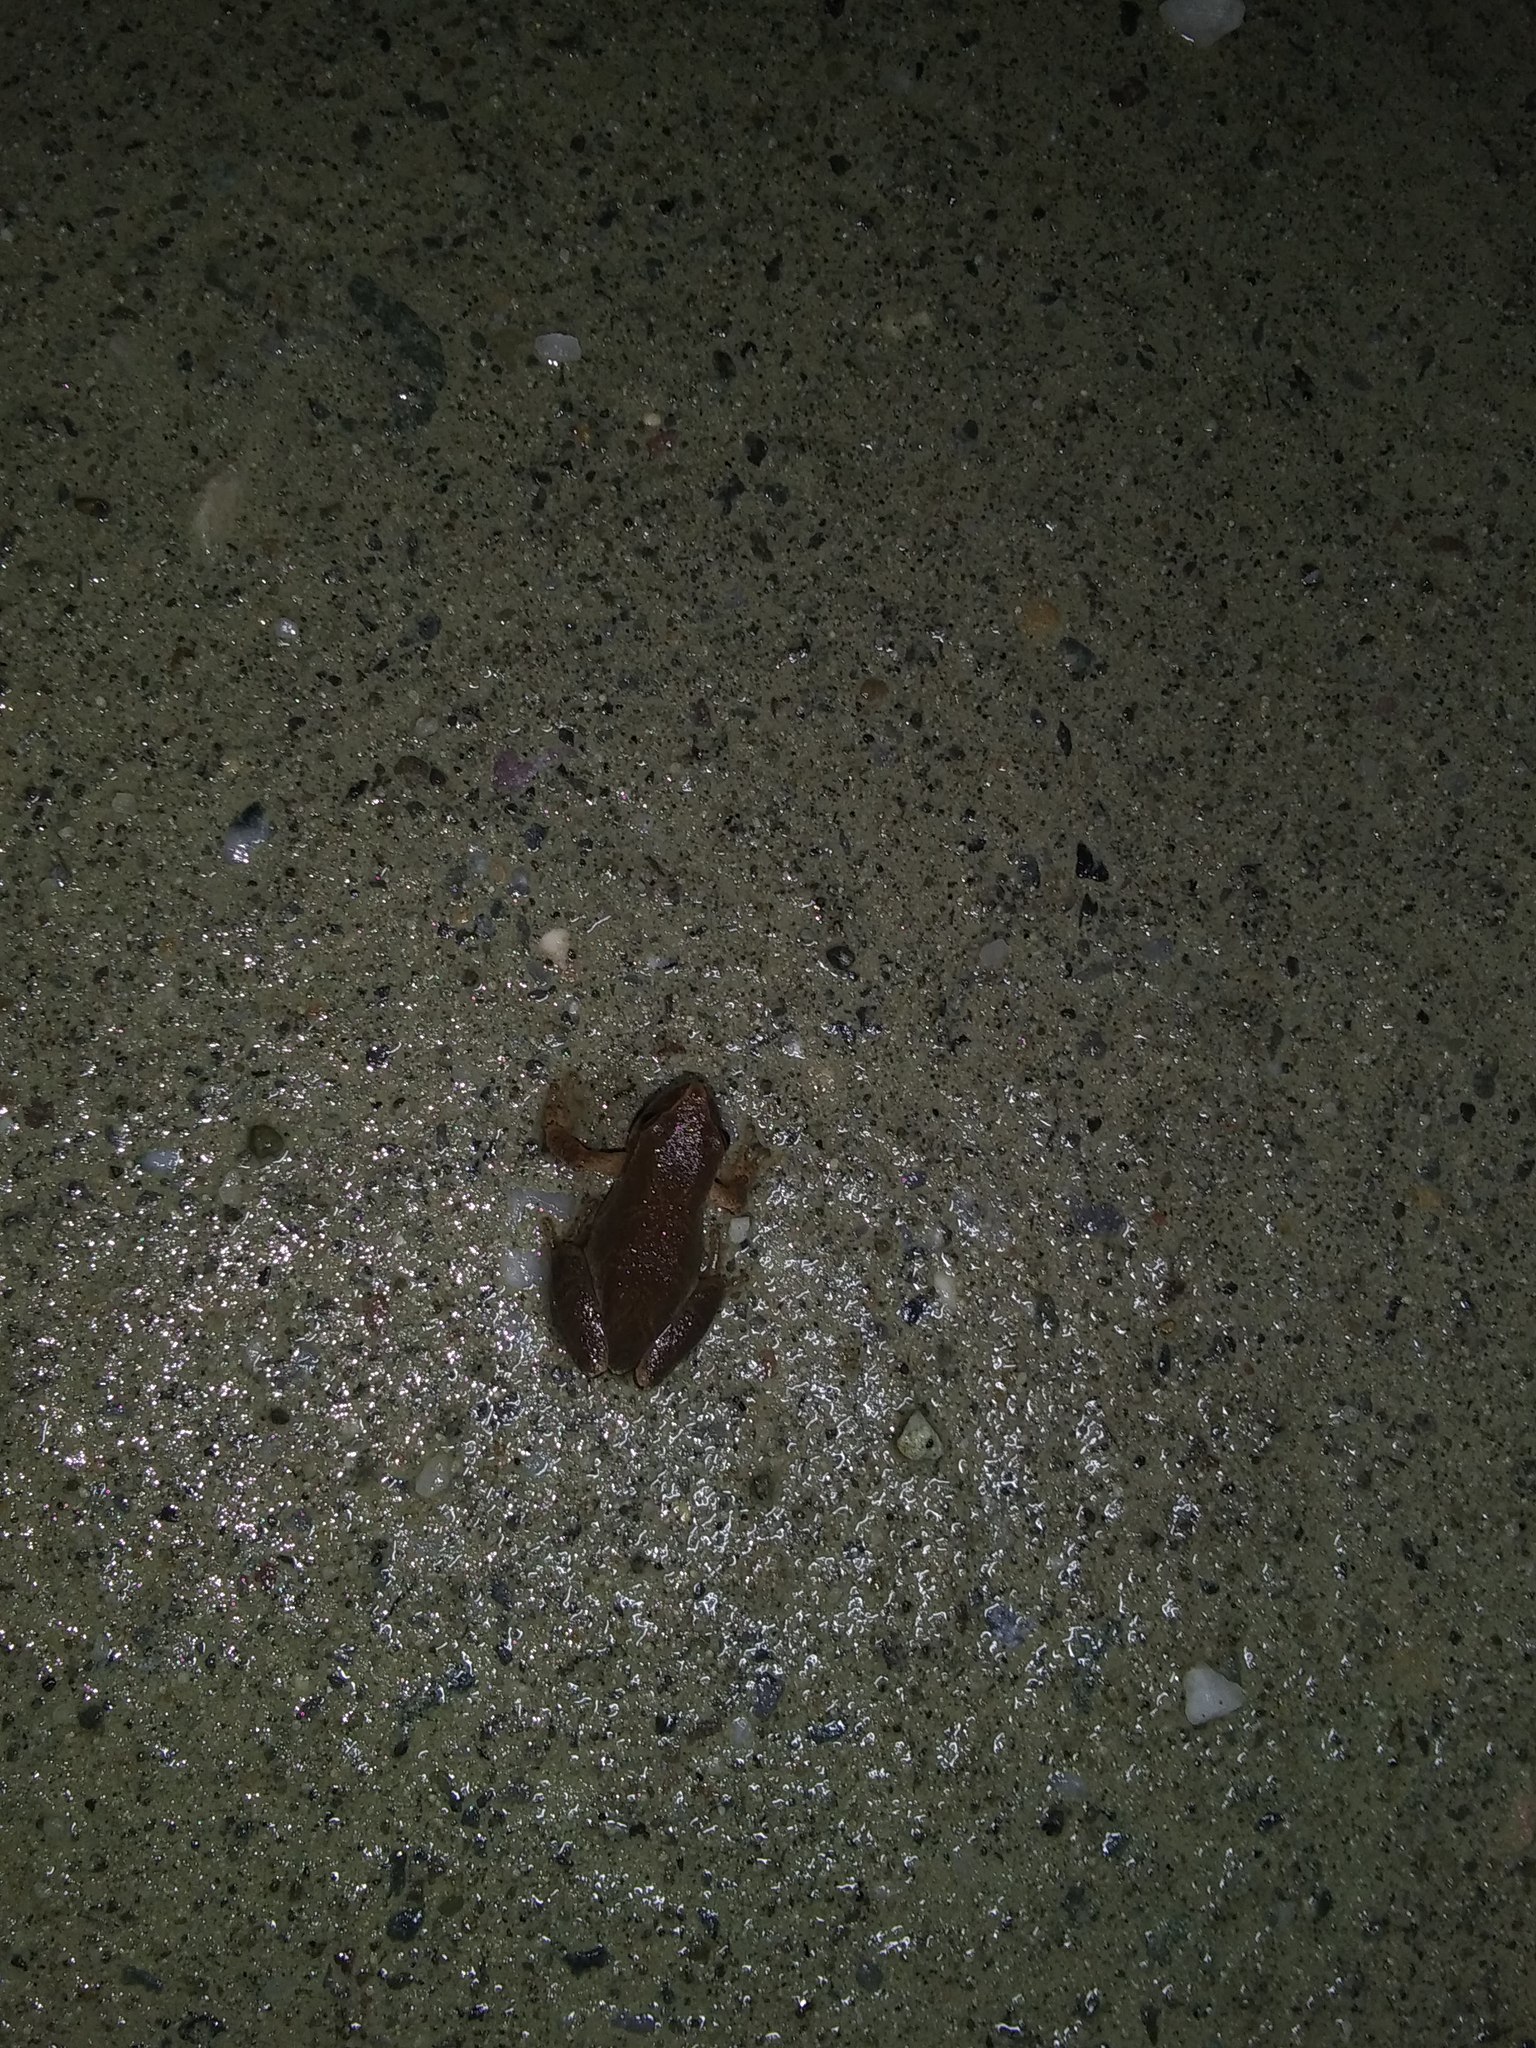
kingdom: Animalia
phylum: Chordata
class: Amphibia
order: Anura
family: Hylidae
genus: Pseudacris
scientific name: Pseudacris crucifer
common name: Spring peeper
